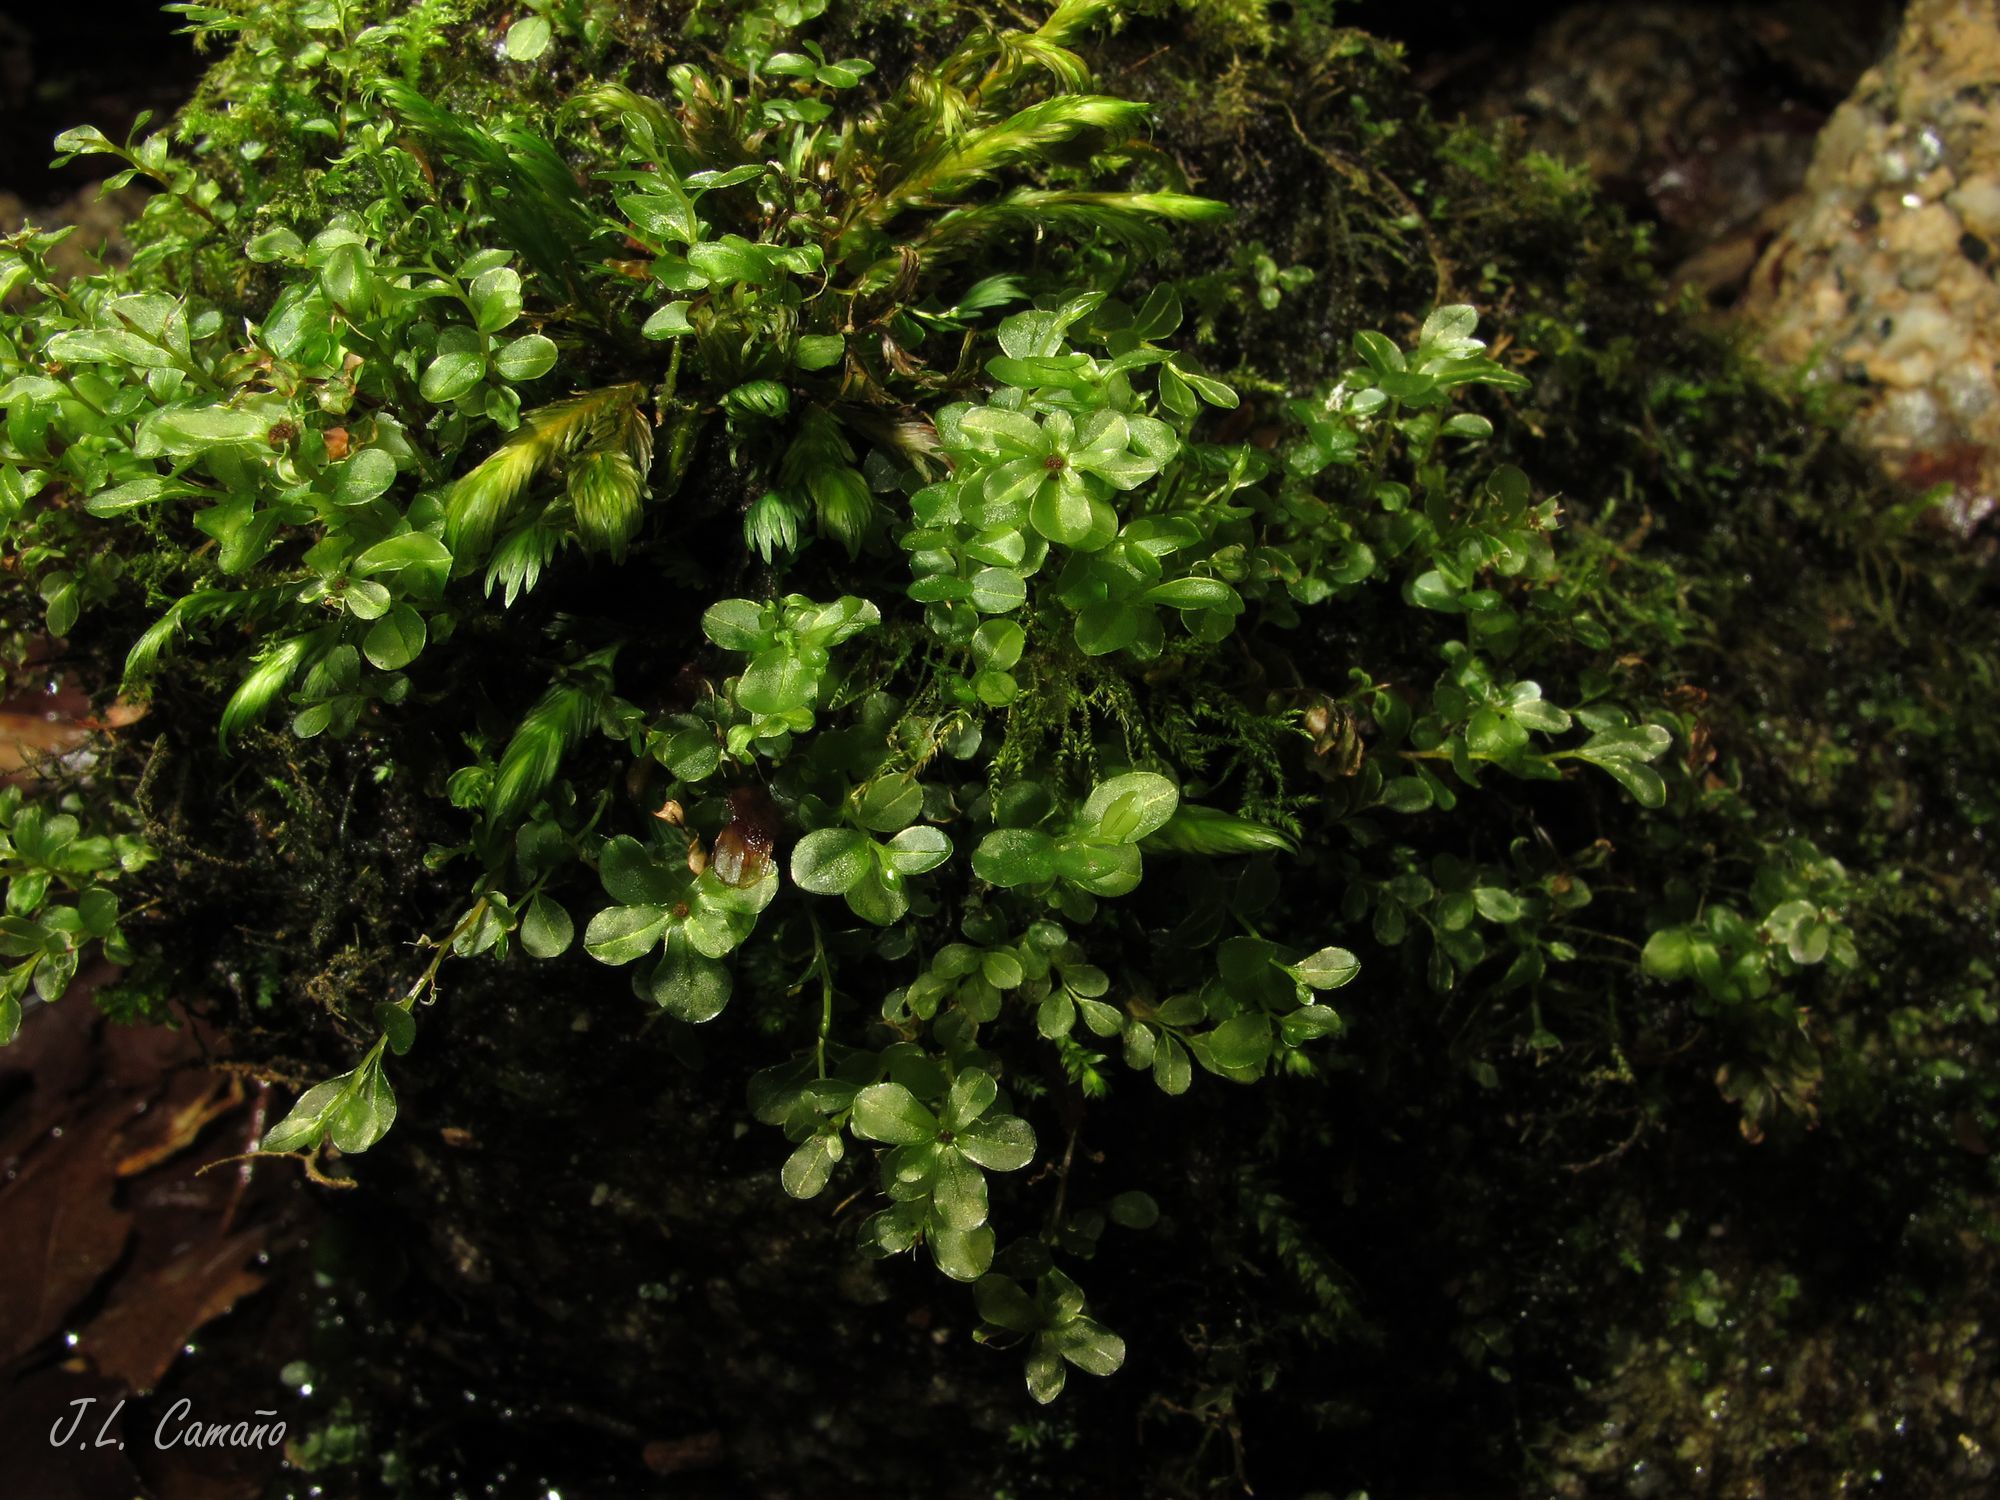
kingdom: Plantae
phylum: Bryophyta
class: Bryopsida
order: Bryales
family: Mniaceae
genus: Rhizomnium
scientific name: Rhizomnium punctatum
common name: Dotted leafy moss
